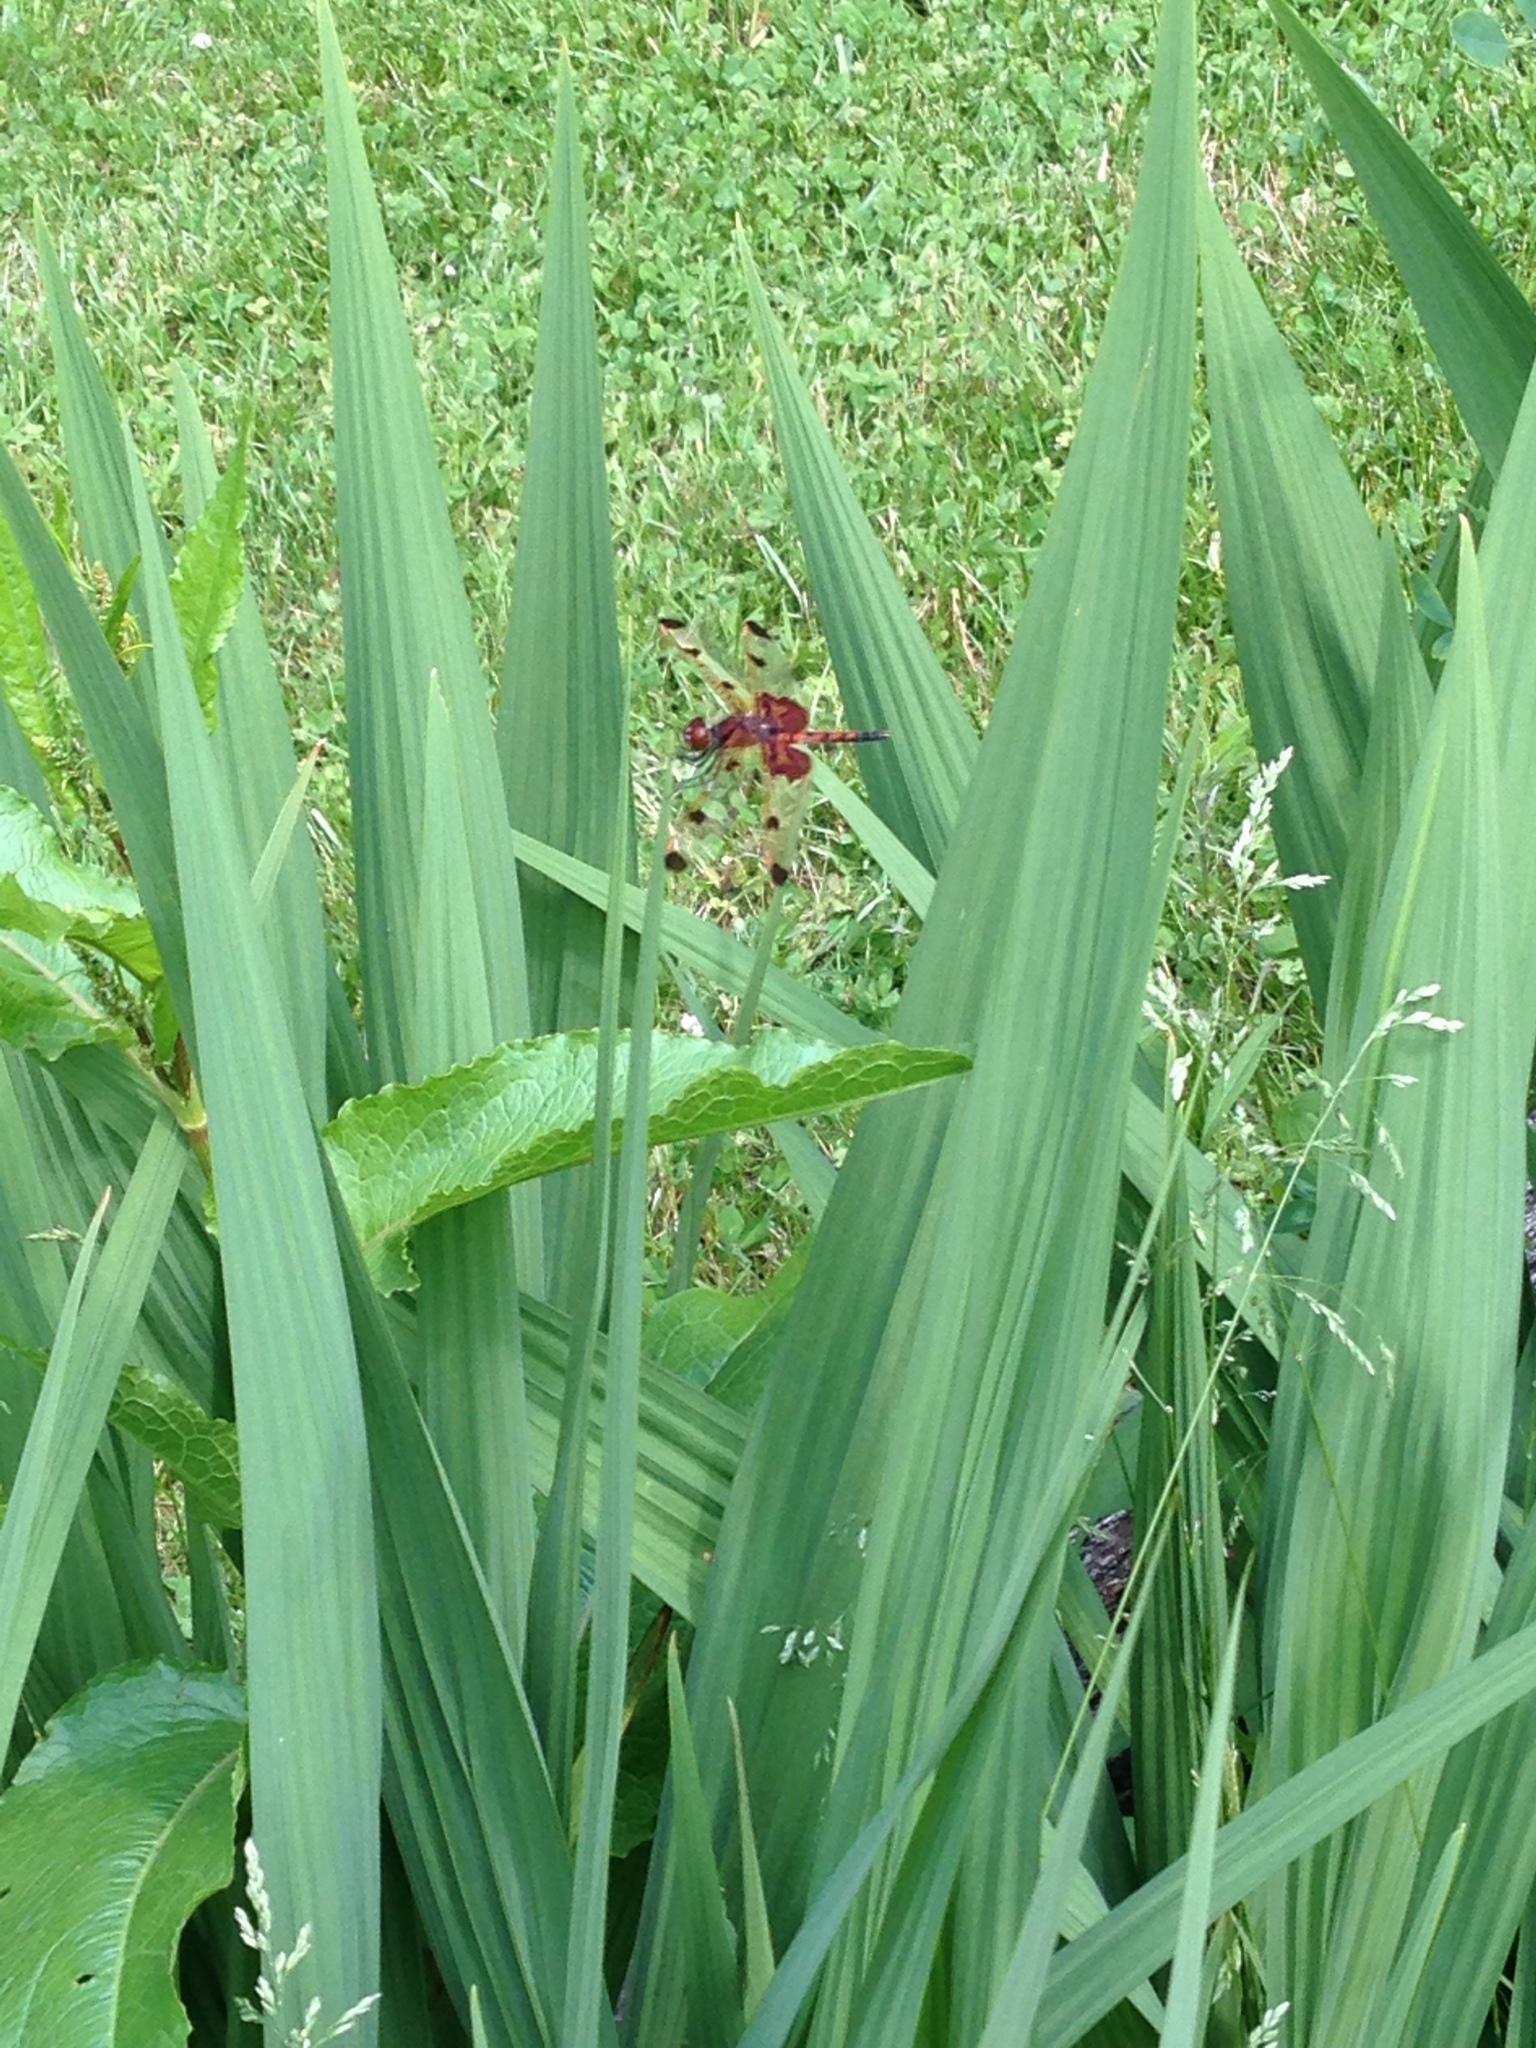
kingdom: Animalia
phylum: Arthropoda
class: Insecta
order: Odonata
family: Libellulidae
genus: Celithemis
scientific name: Celithemis elisa
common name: Calico pennant
